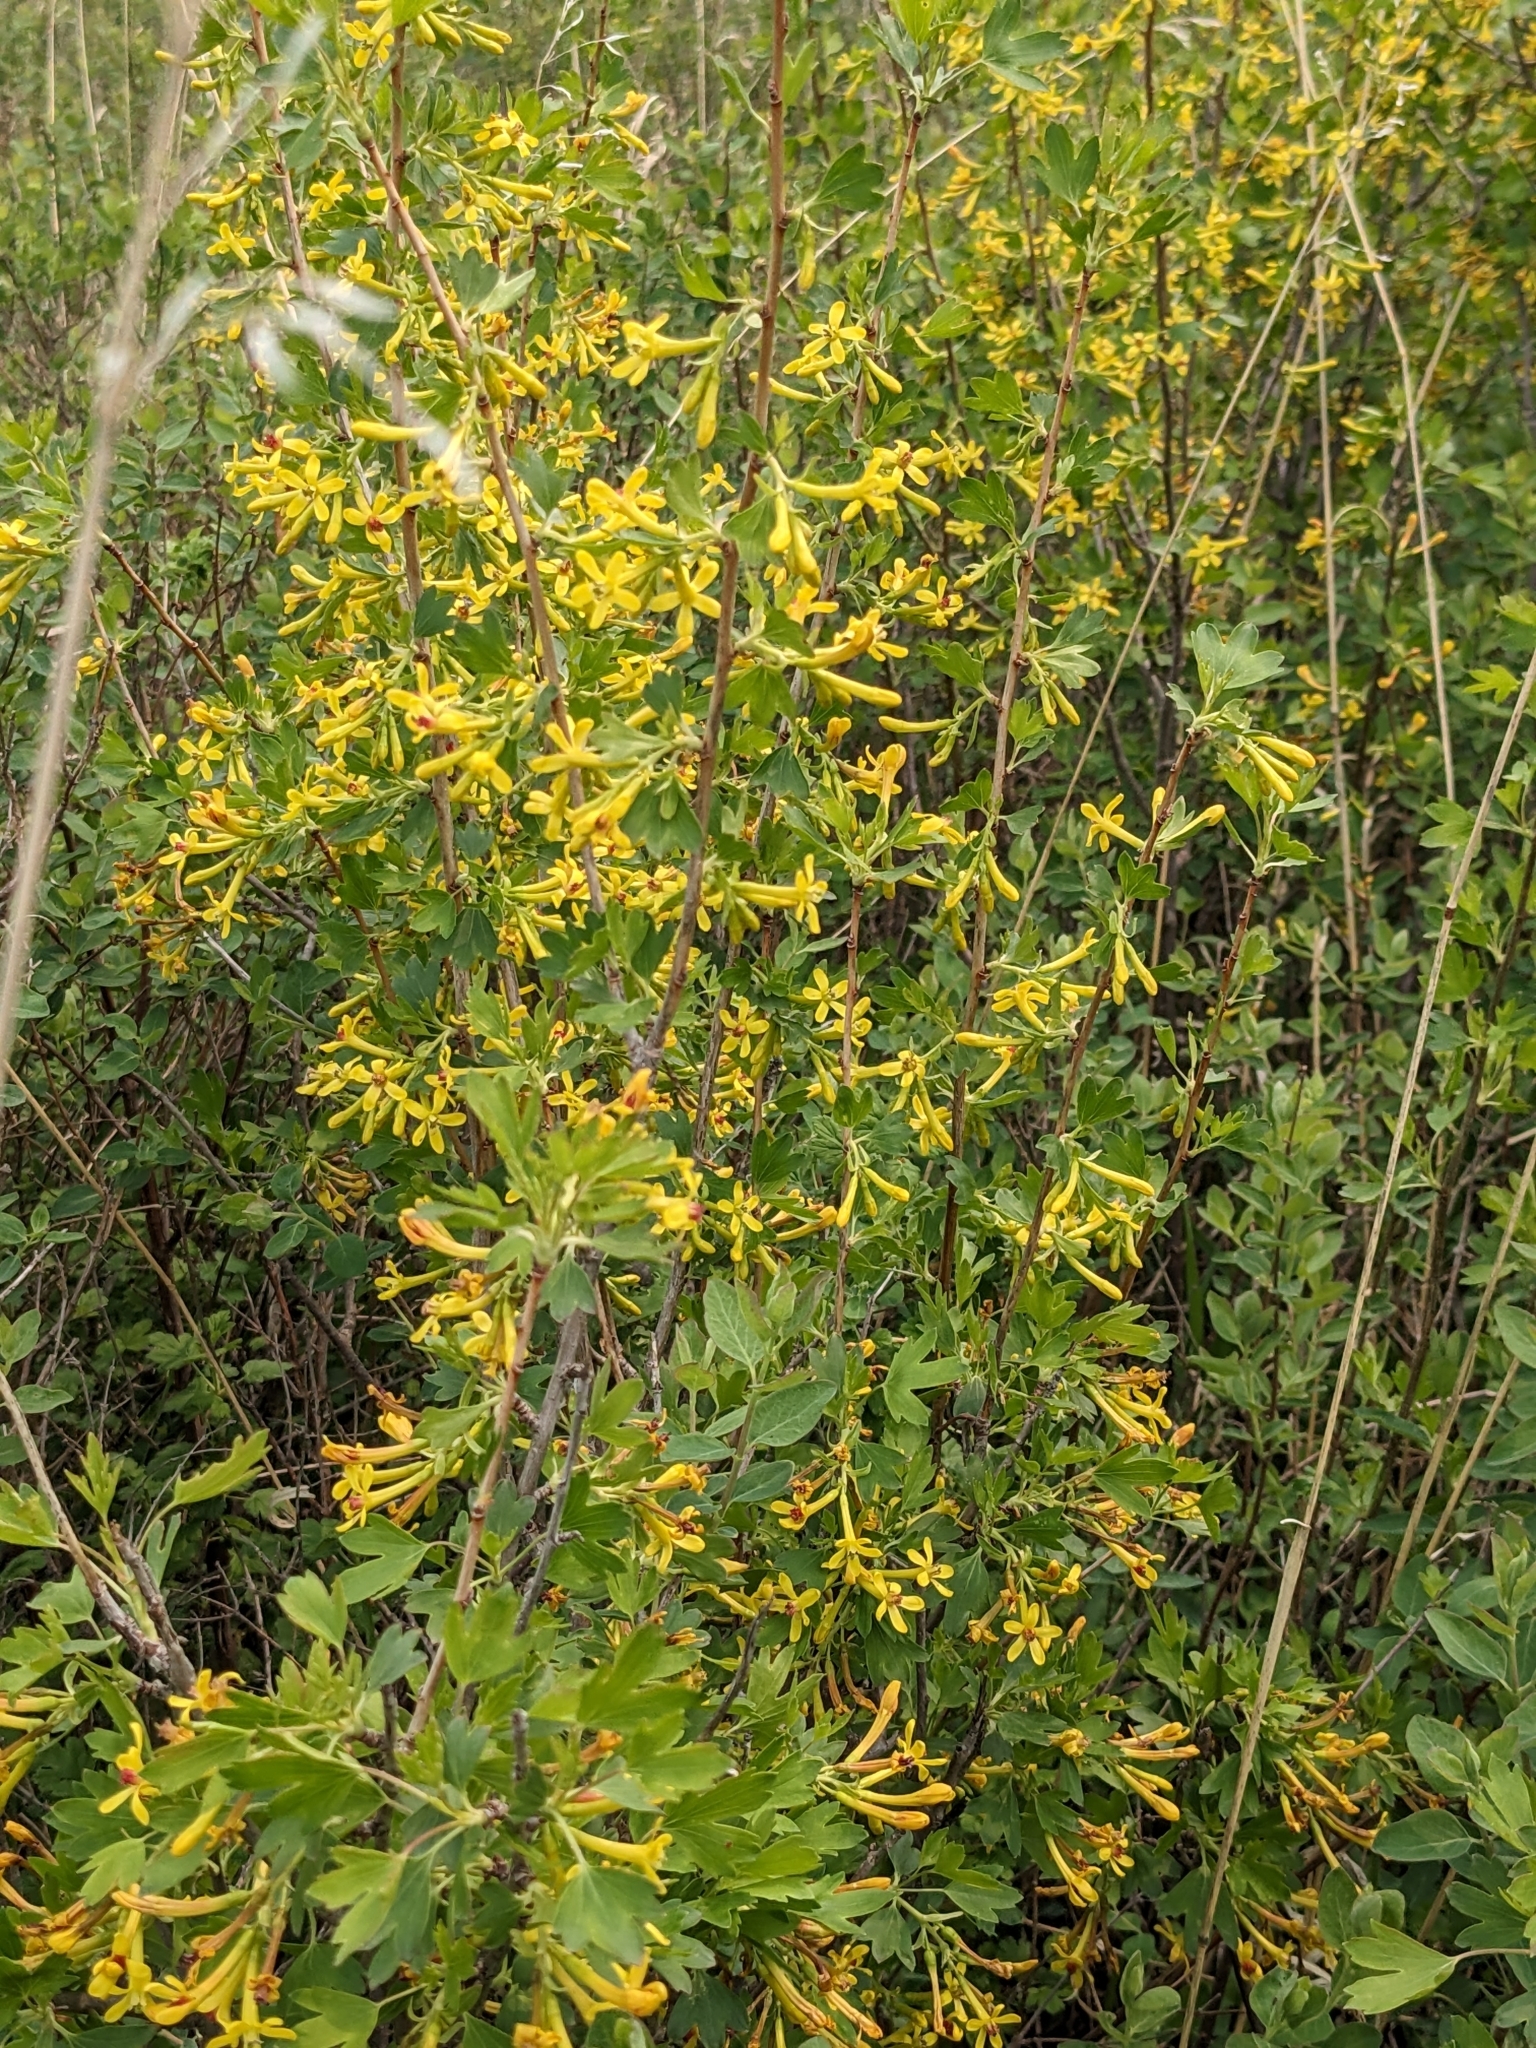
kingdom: Plantae
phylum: Tracheophyta
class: Magnoliopsida
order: Saxifragales
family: Grossulariaceae
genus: Ribes
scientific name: Ribes aureum
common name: Golden currant
